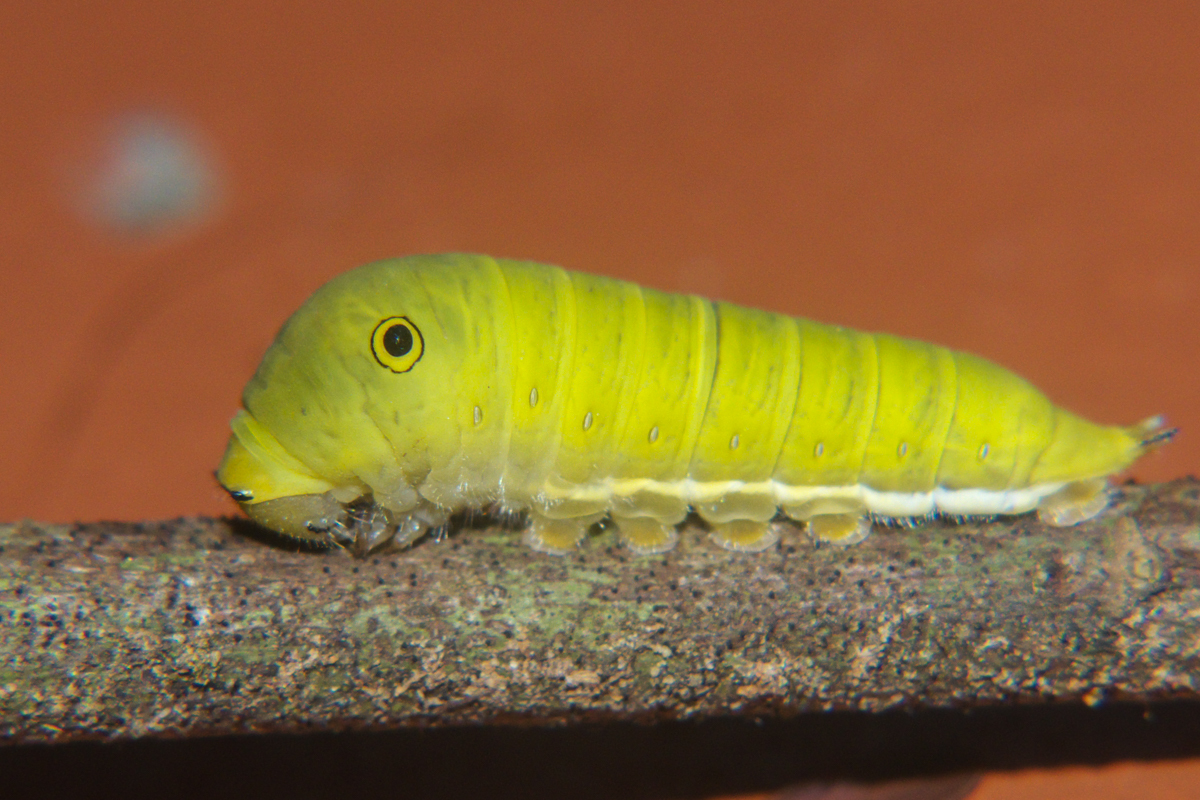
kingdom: Animalia
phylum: Arthropoda
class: Insecta
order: Lepidoptera
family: Papilionidae
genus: Graphium
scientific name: Graphium doson
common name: Common jay
